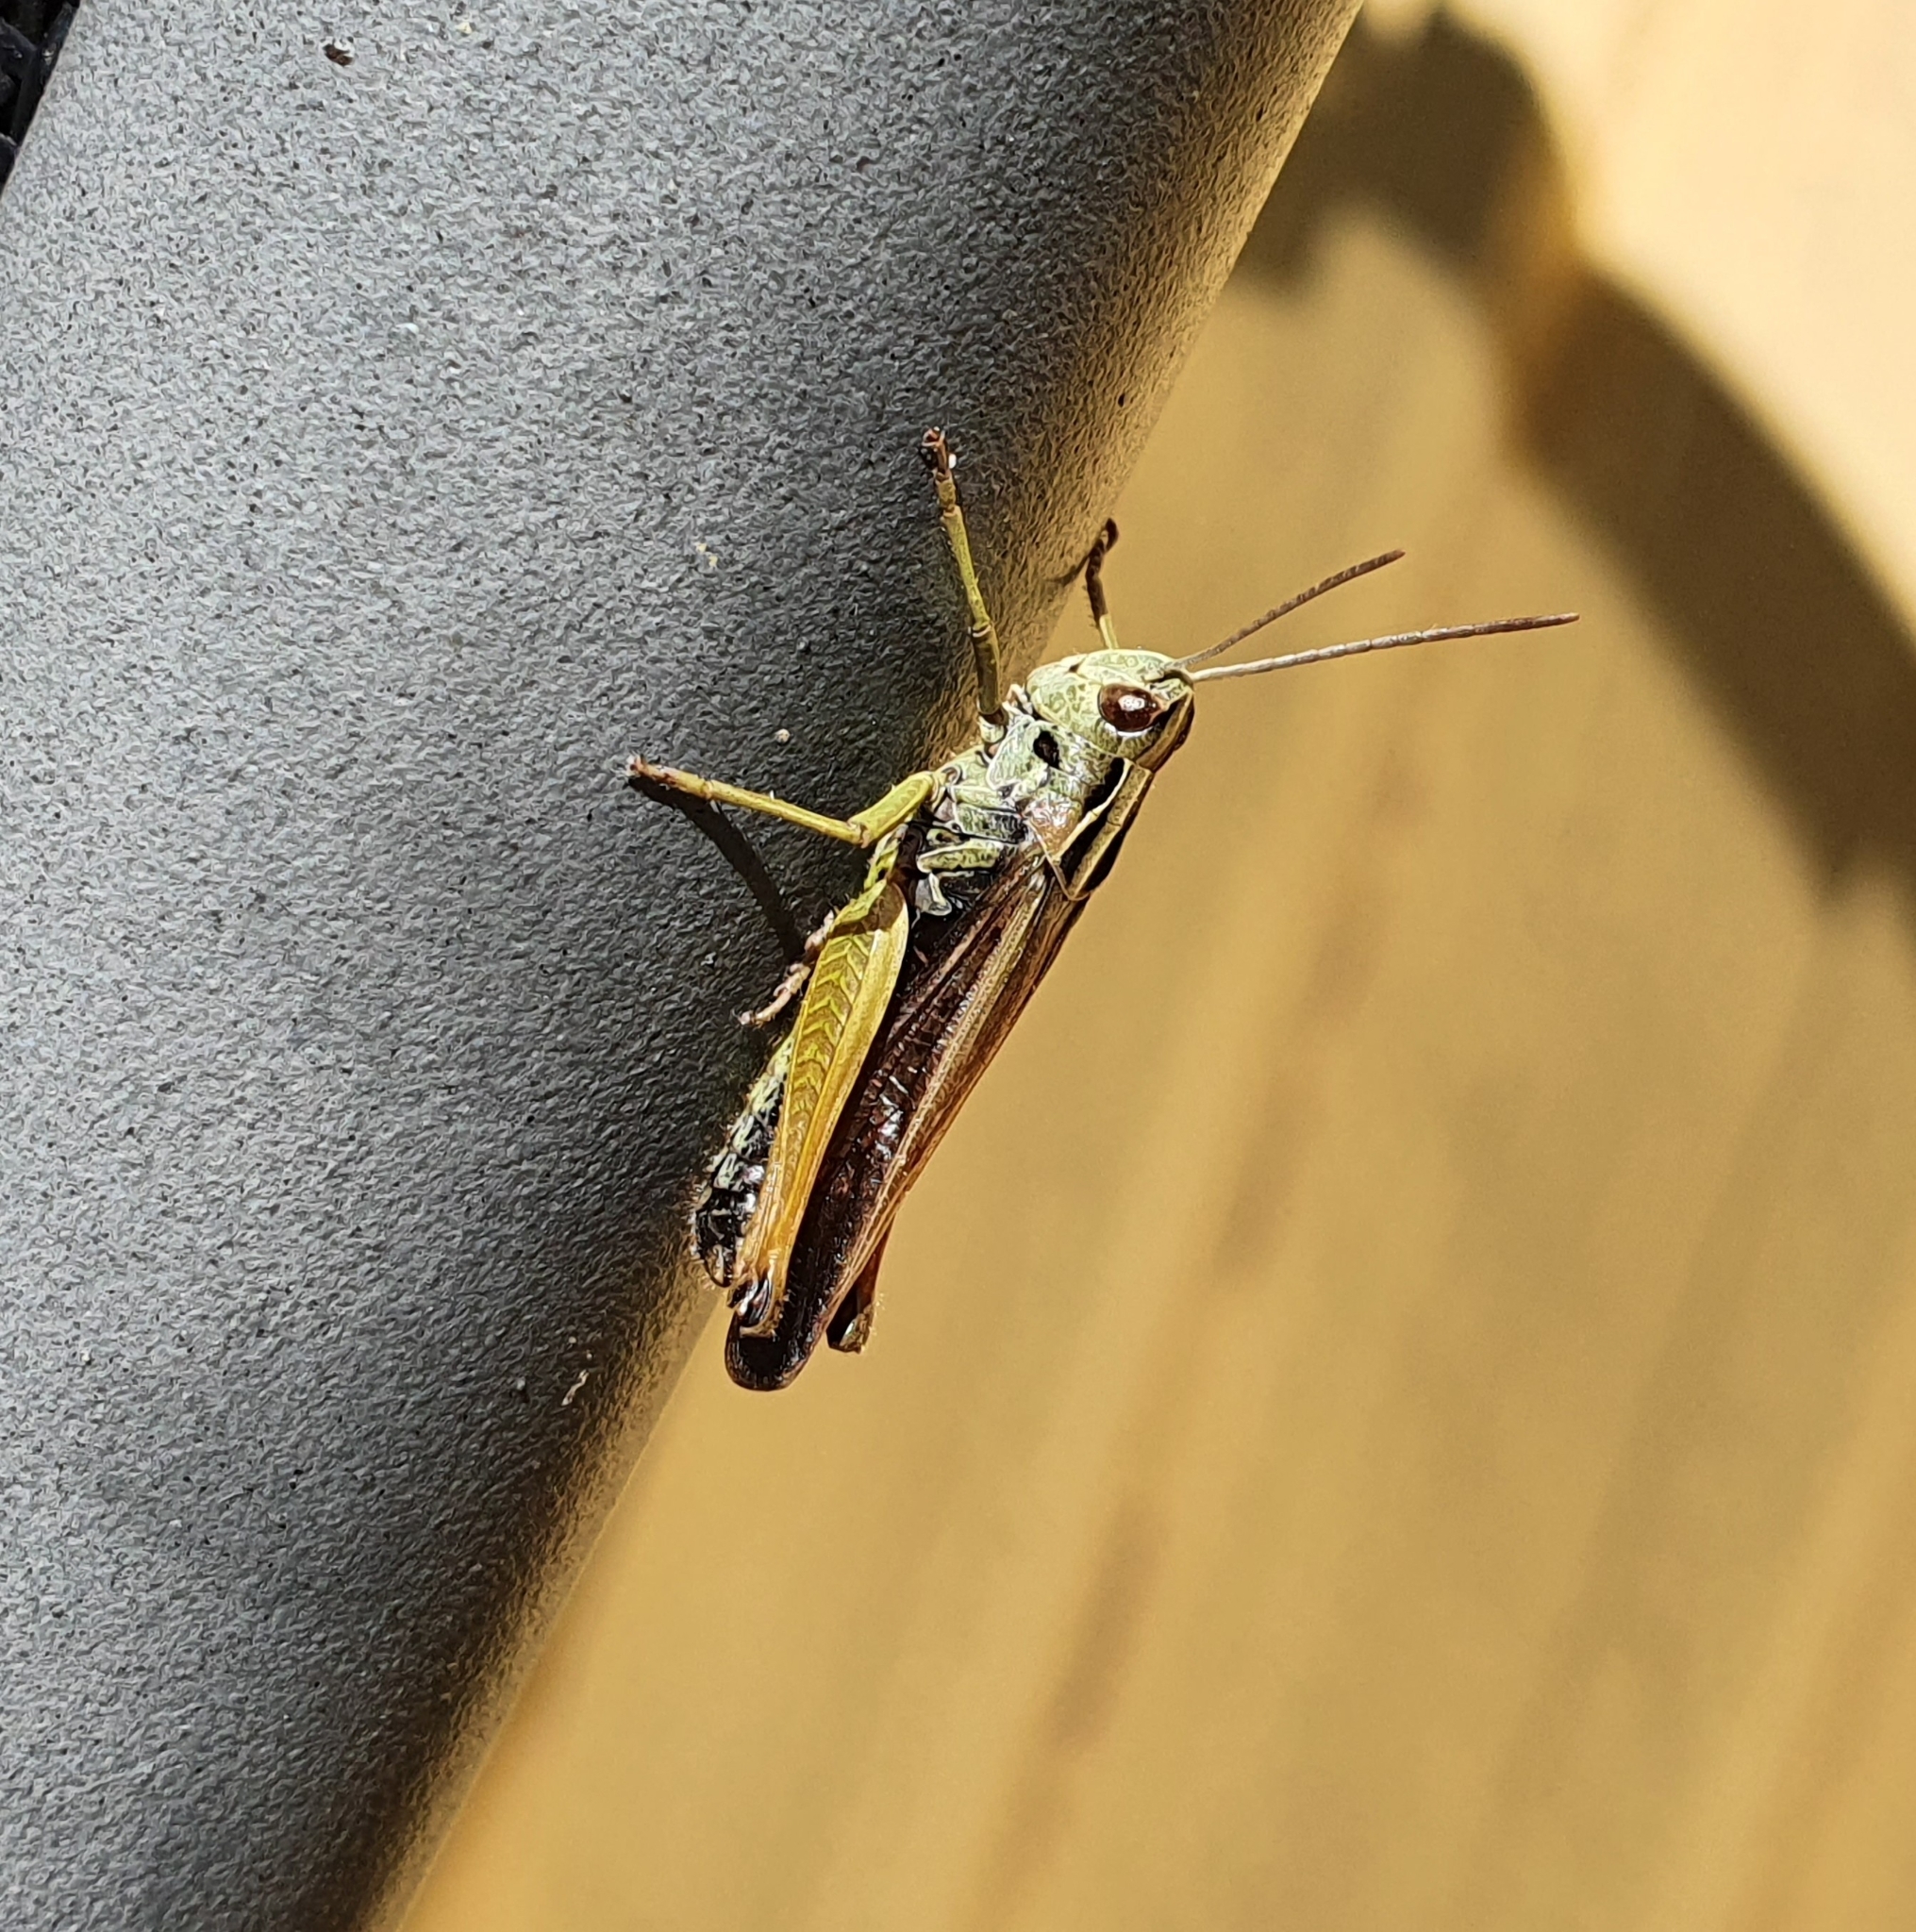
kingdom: Animalia
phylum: Arthropoda
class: Insecta
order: Orthoptera
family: Acrididae
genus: Omocestus
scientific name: Omocestus viridulus
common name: Common green grasshopper
